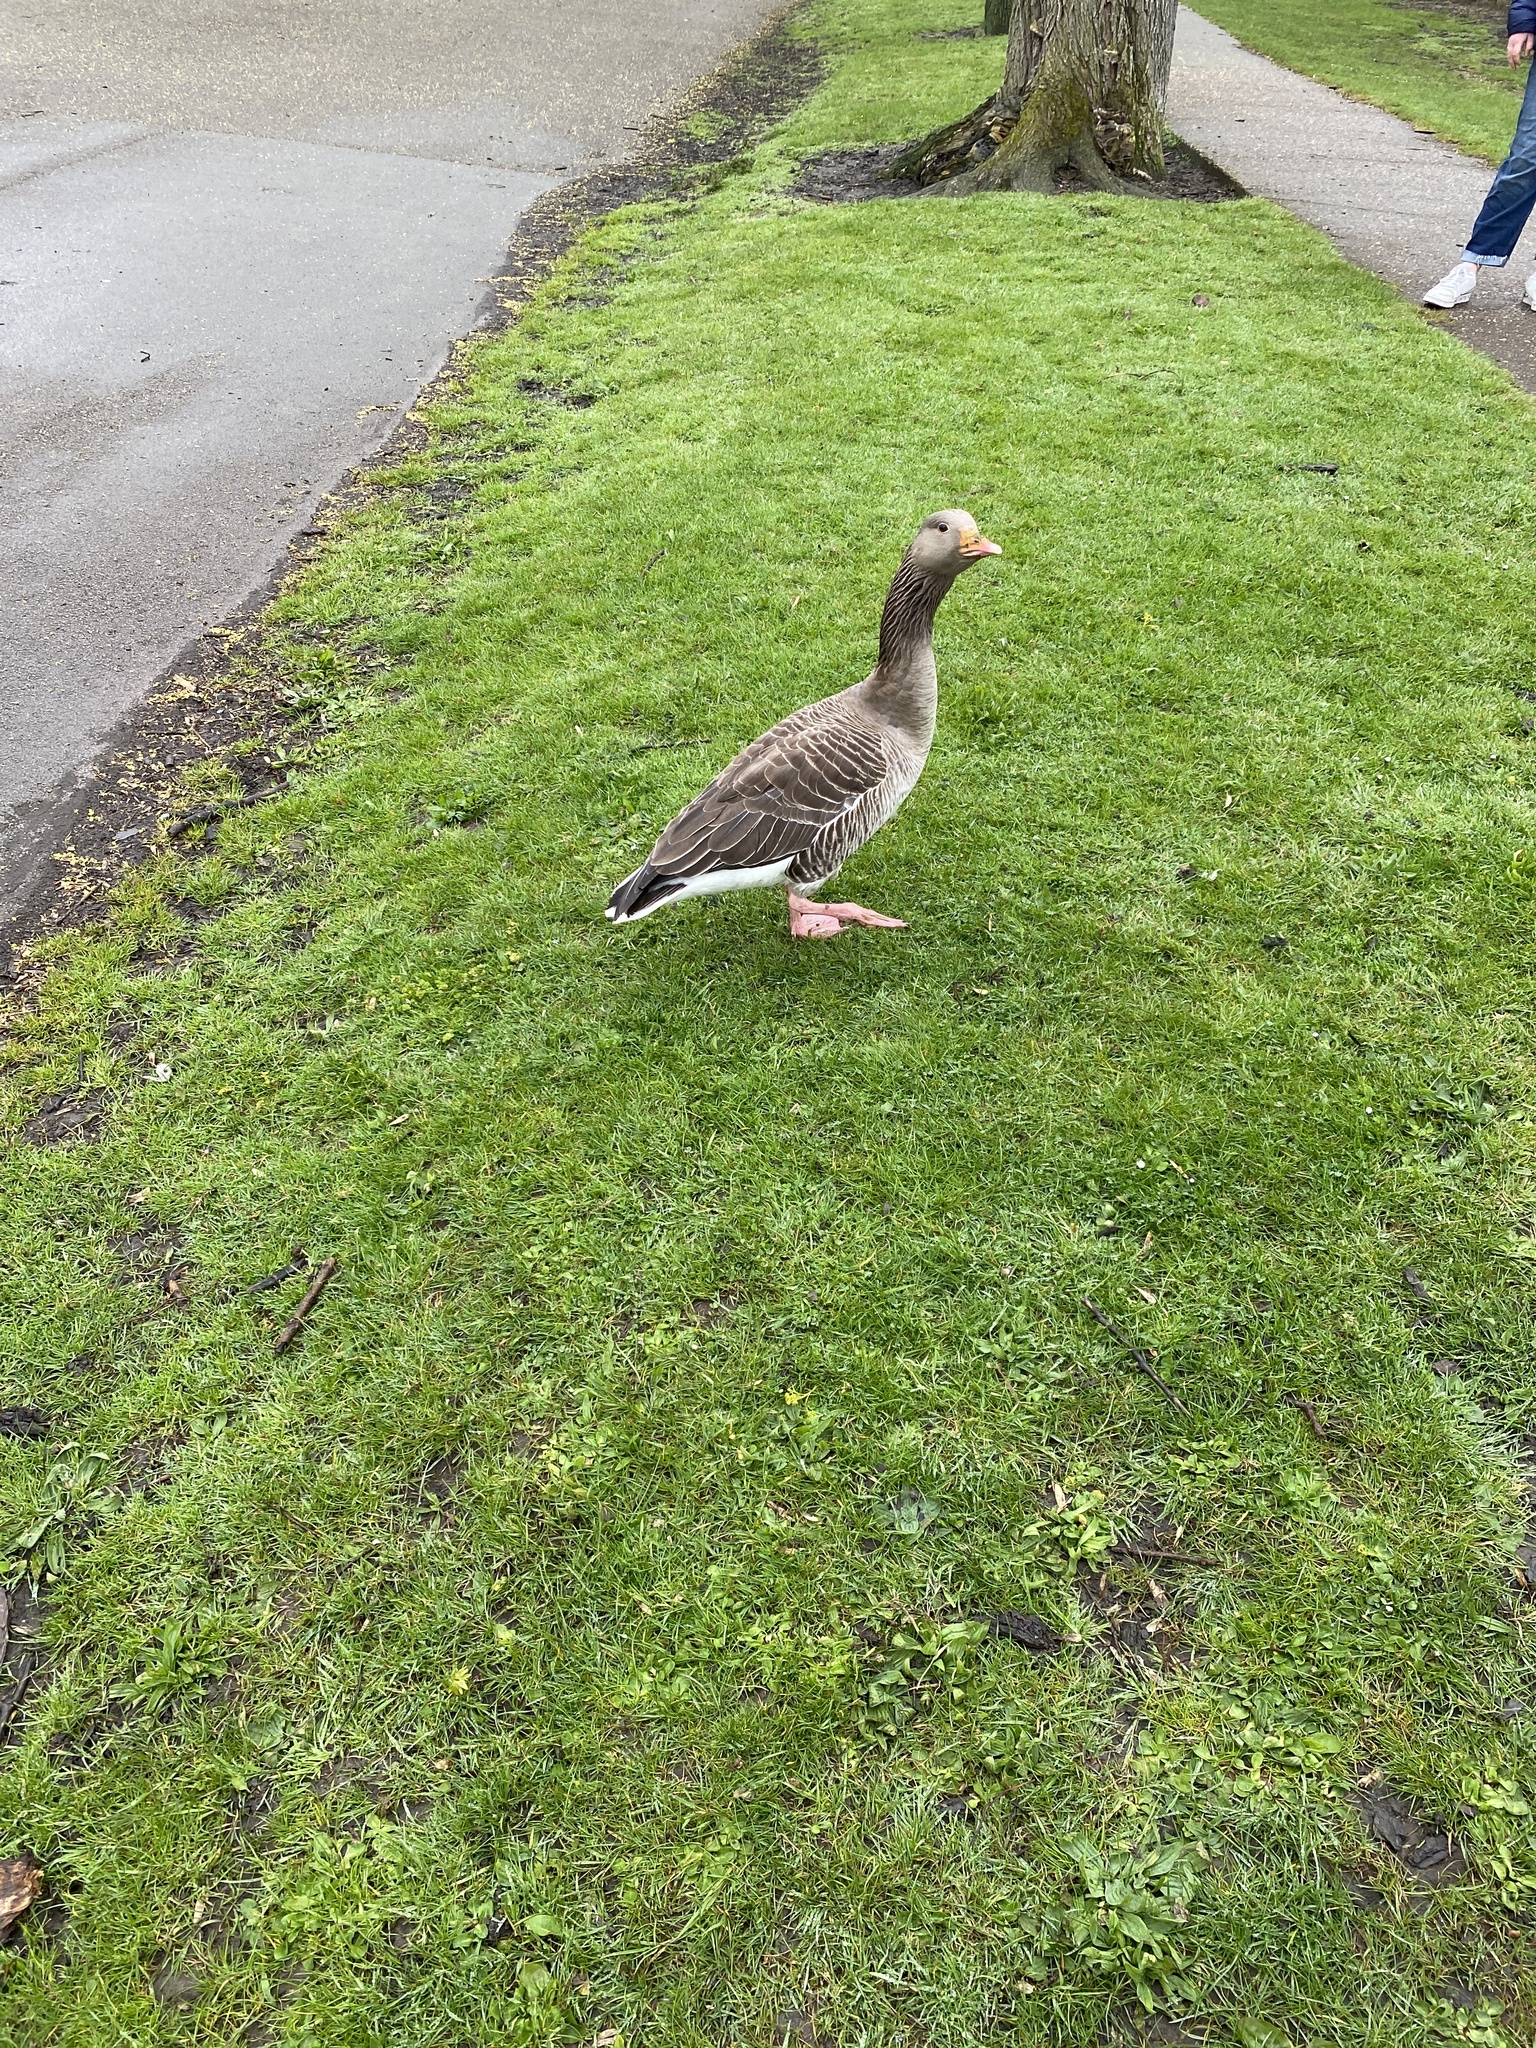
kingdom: Animalia
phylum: Chordata
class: Aves
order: Anseriformes
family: Anatidae
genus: Anser
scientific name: Anser anser
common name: Greylag goose
